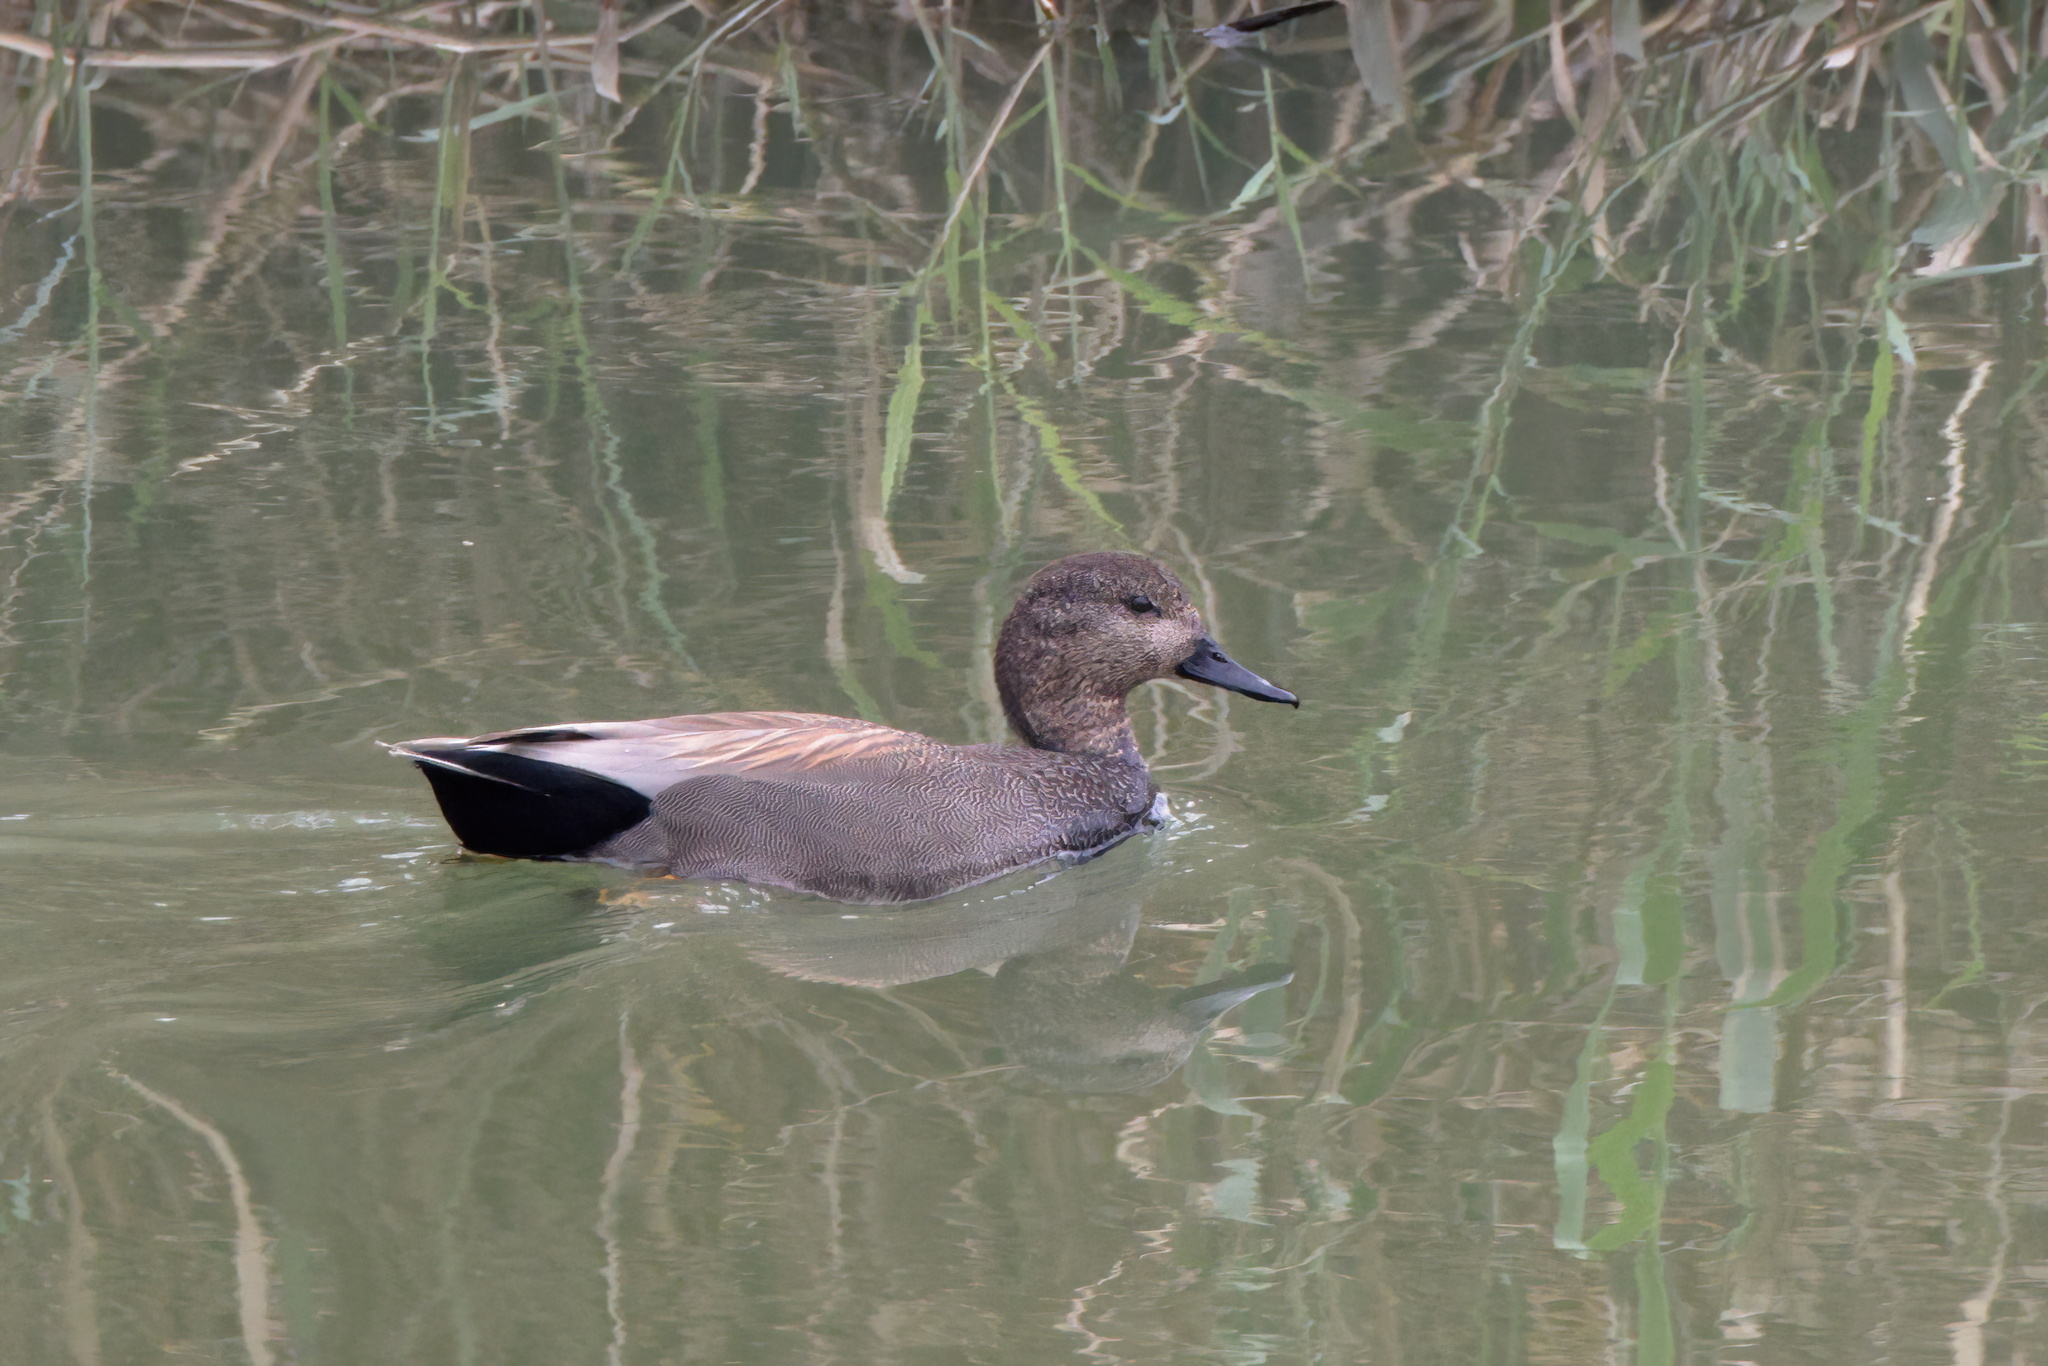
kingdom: Animalia
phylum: Chordata
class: Aves
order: Anseriformes
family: Anatidae
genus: Mareca
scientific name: Mareca strepera
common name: Gadwall
